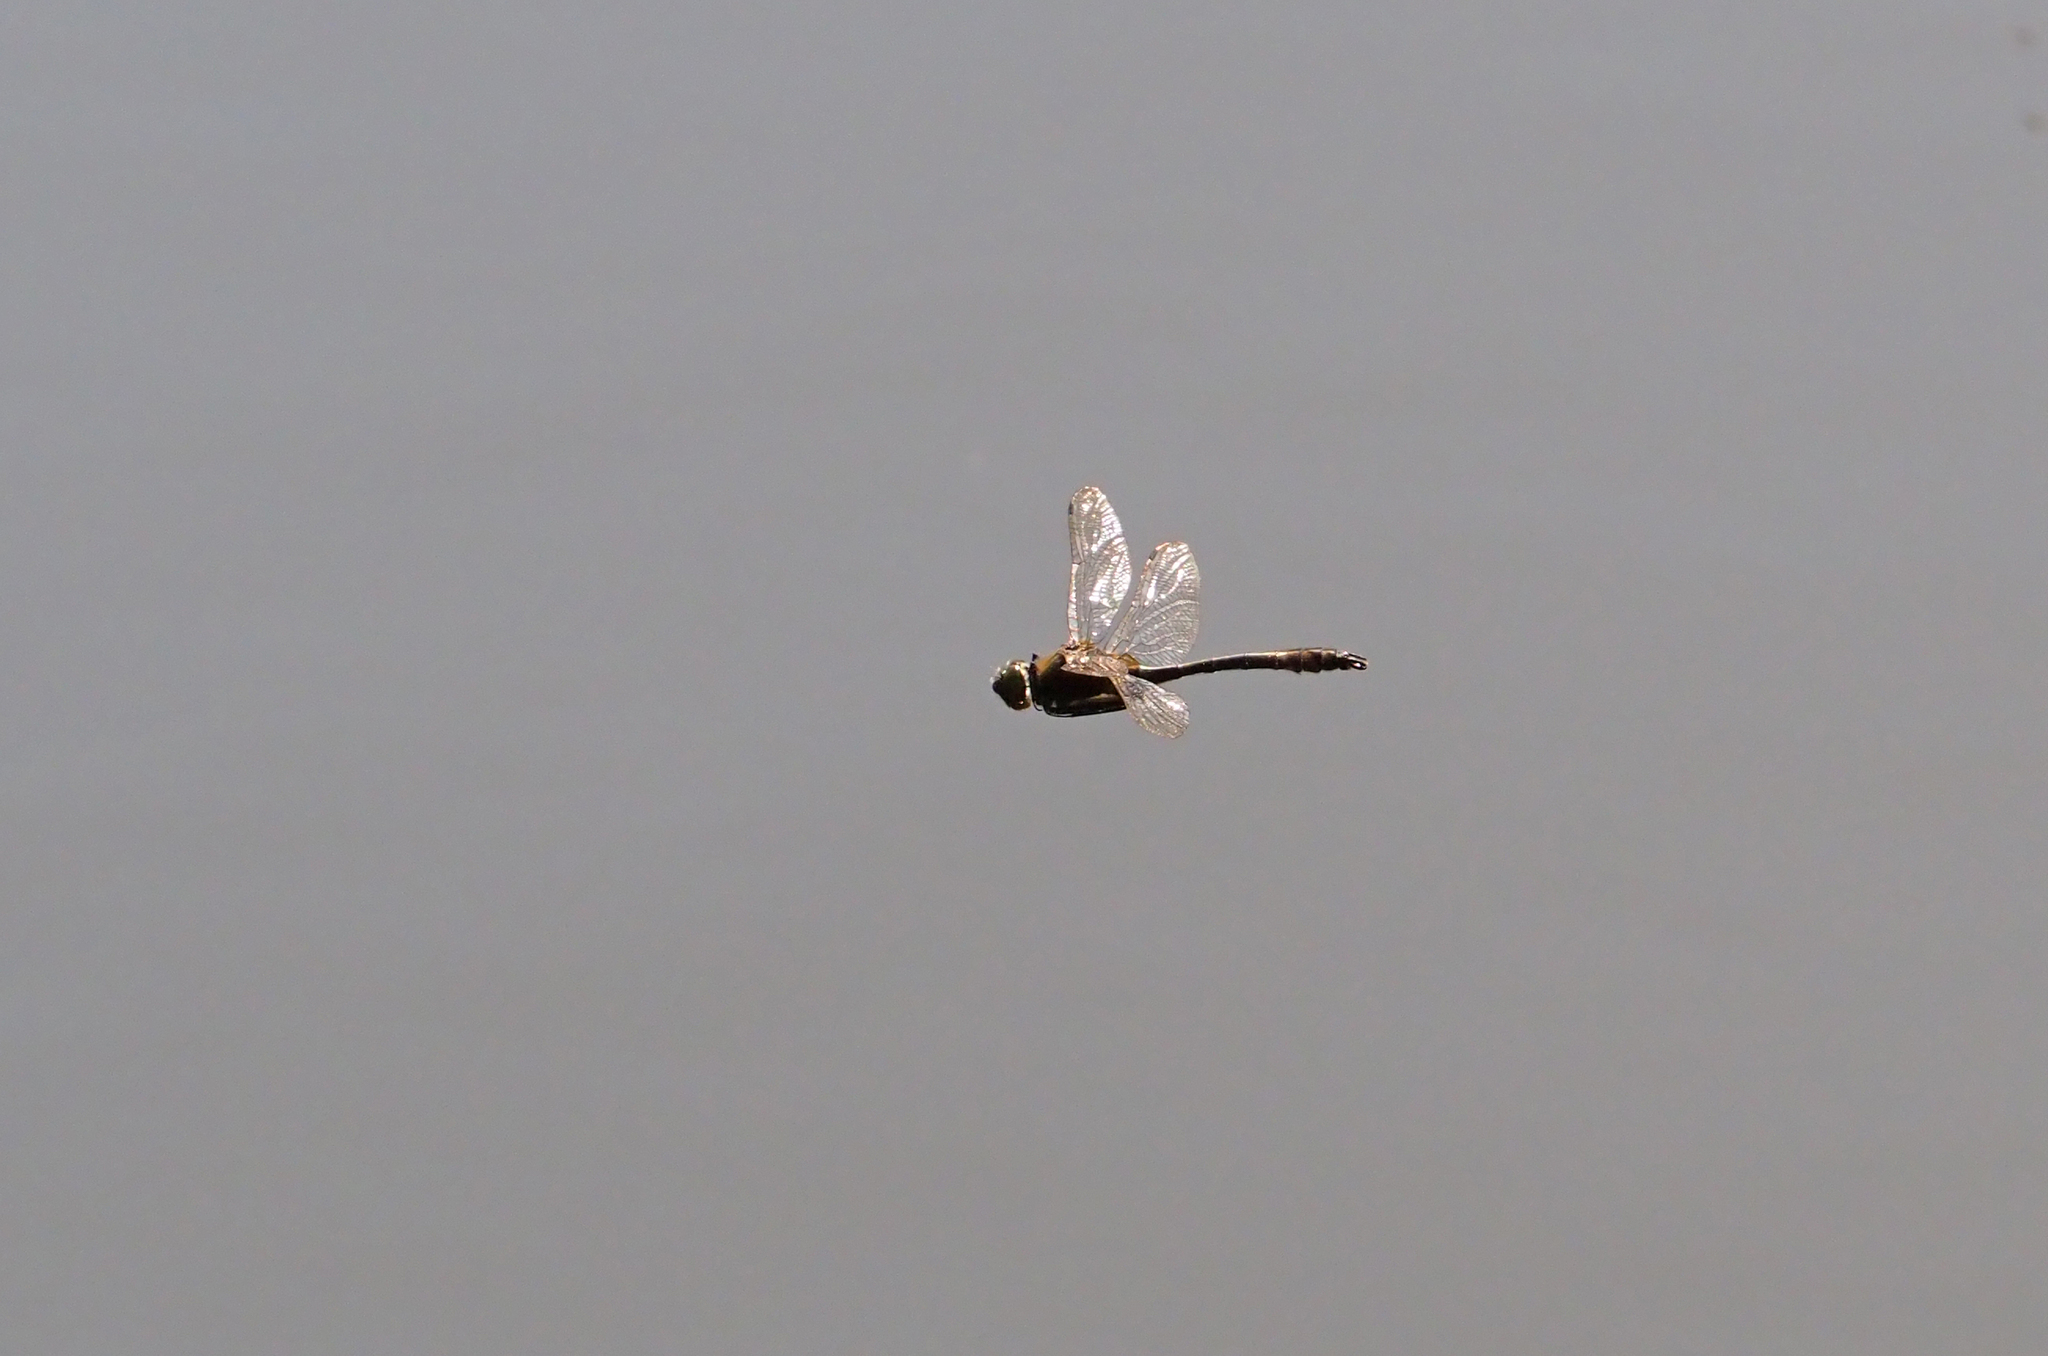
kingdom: Animalia
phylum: Arthropoda
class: Insecta
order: Odonata
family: Corduliidae
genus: Cordulia
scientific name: Cordulia aenea
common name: Downy emerald
